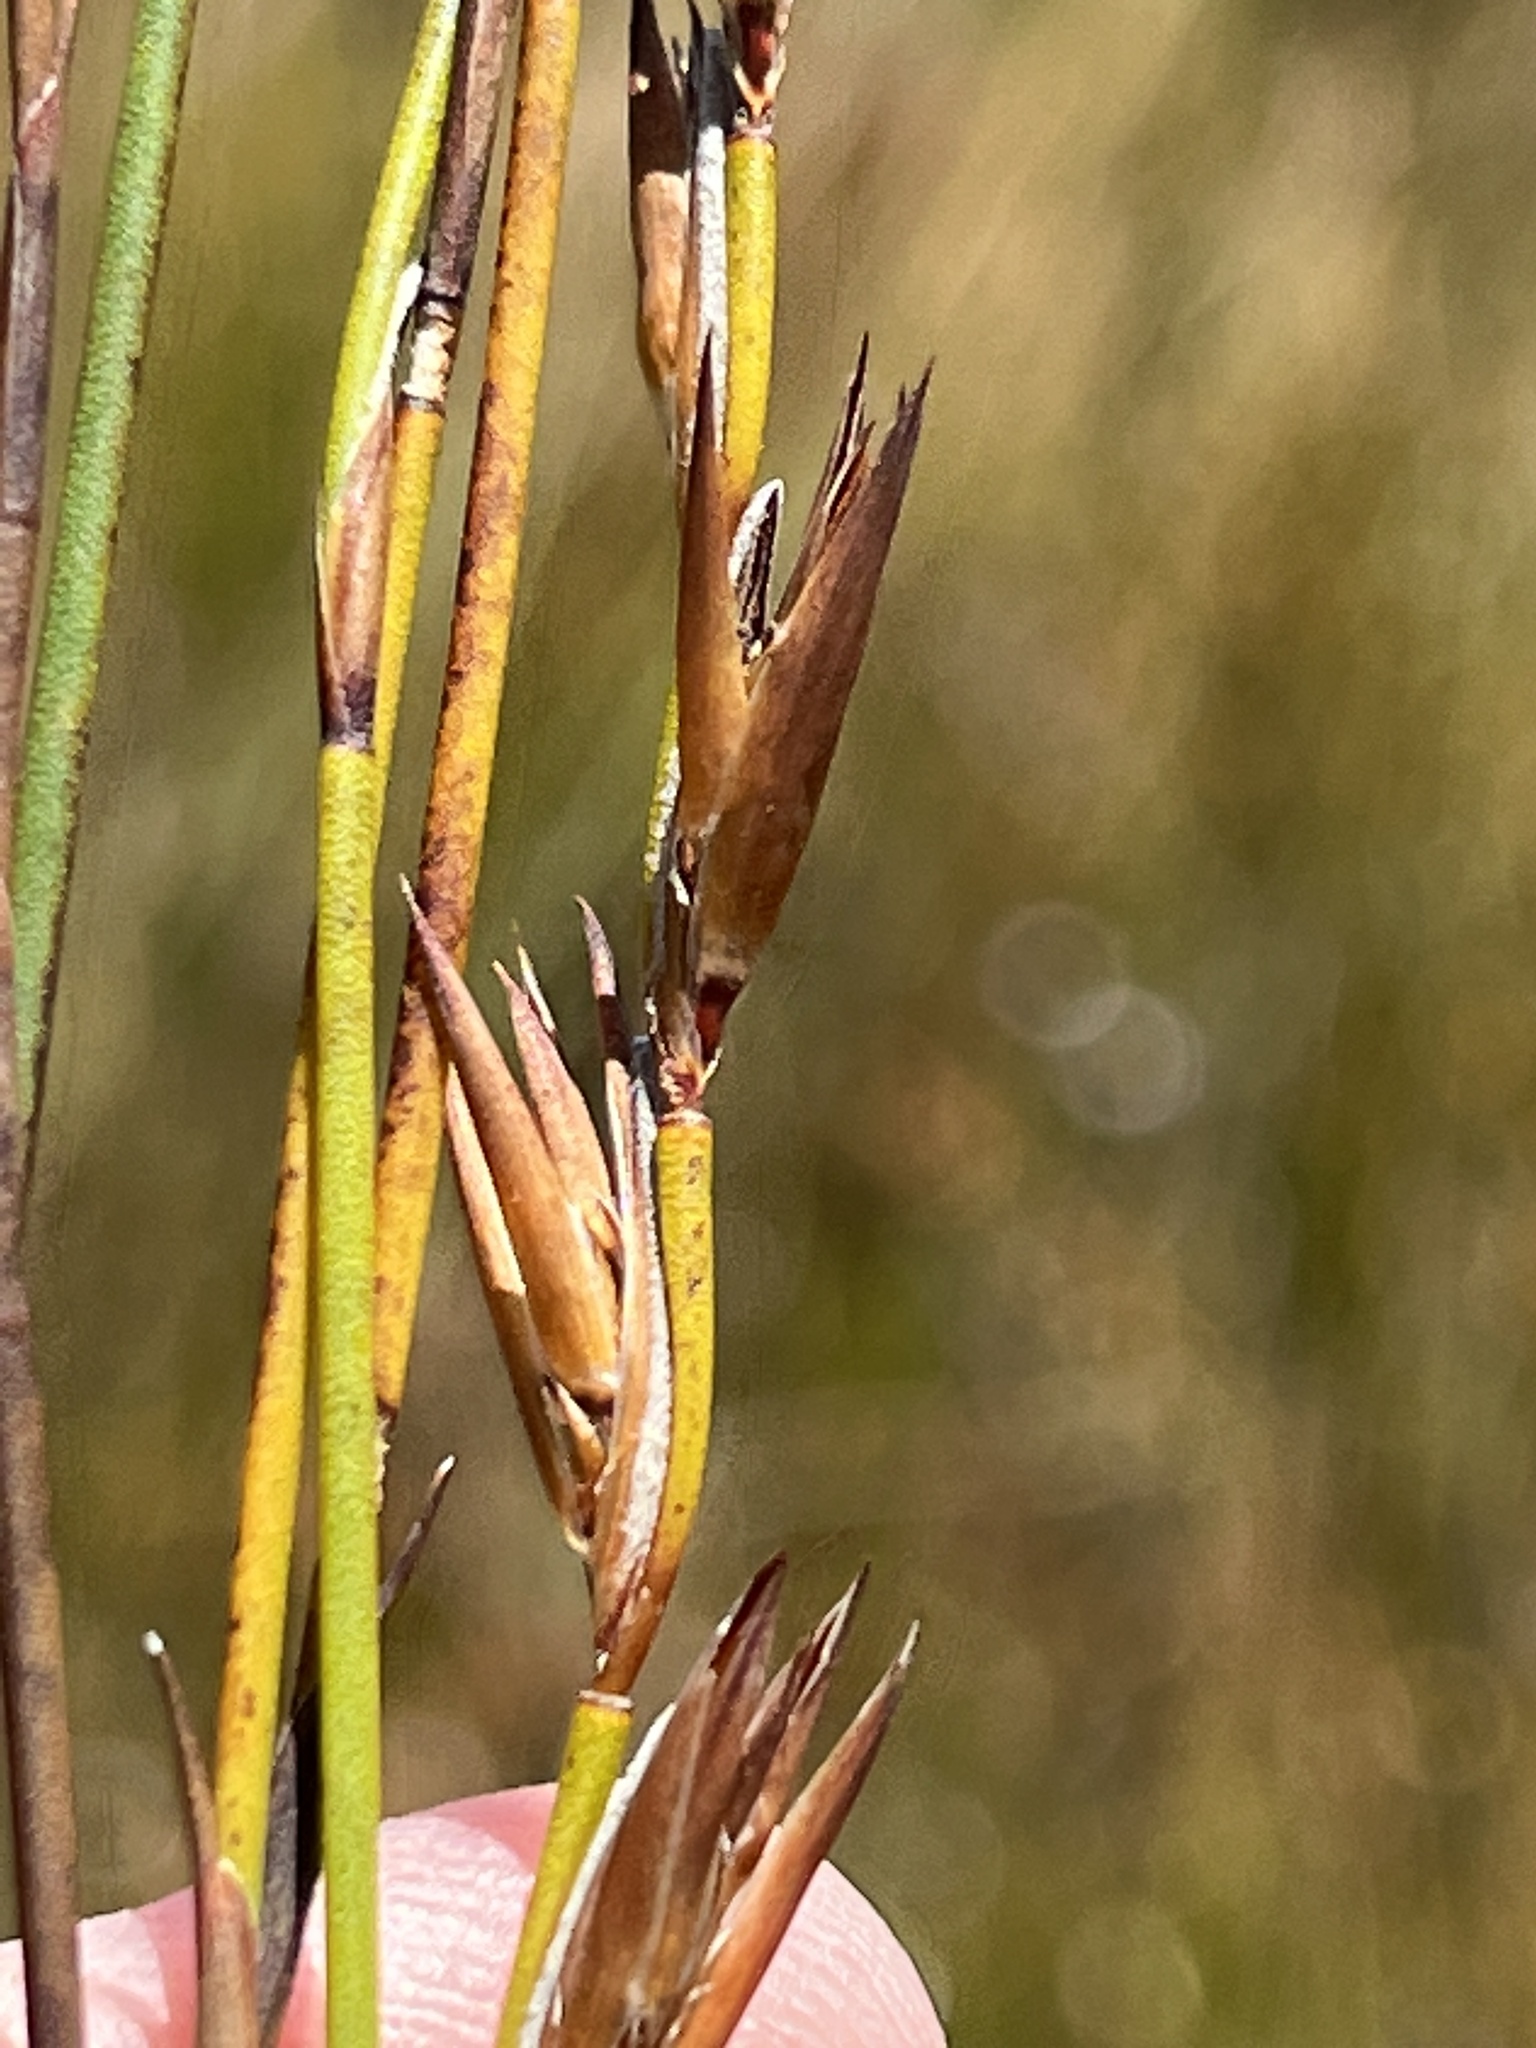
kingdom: Plantae
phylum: Tracheophyta
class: Liliopsida
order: Poales
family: Restionaceae
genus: Platycaulos
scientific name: Platycaulos callistachyus
